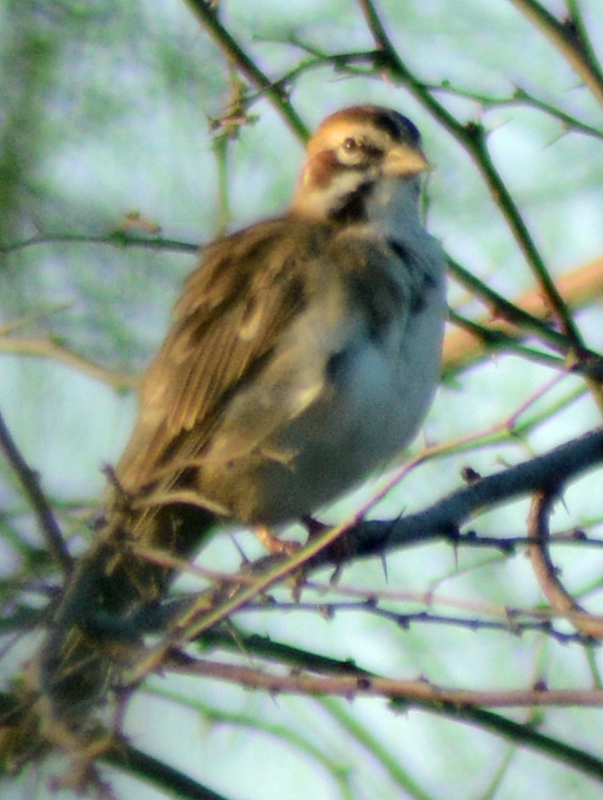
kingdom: Animalia
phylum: Chordata
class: Aves
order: Passeriformes
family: Passerellidae
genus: Chondestes
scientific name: Chondestes grammacus
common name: Lark sparrow
